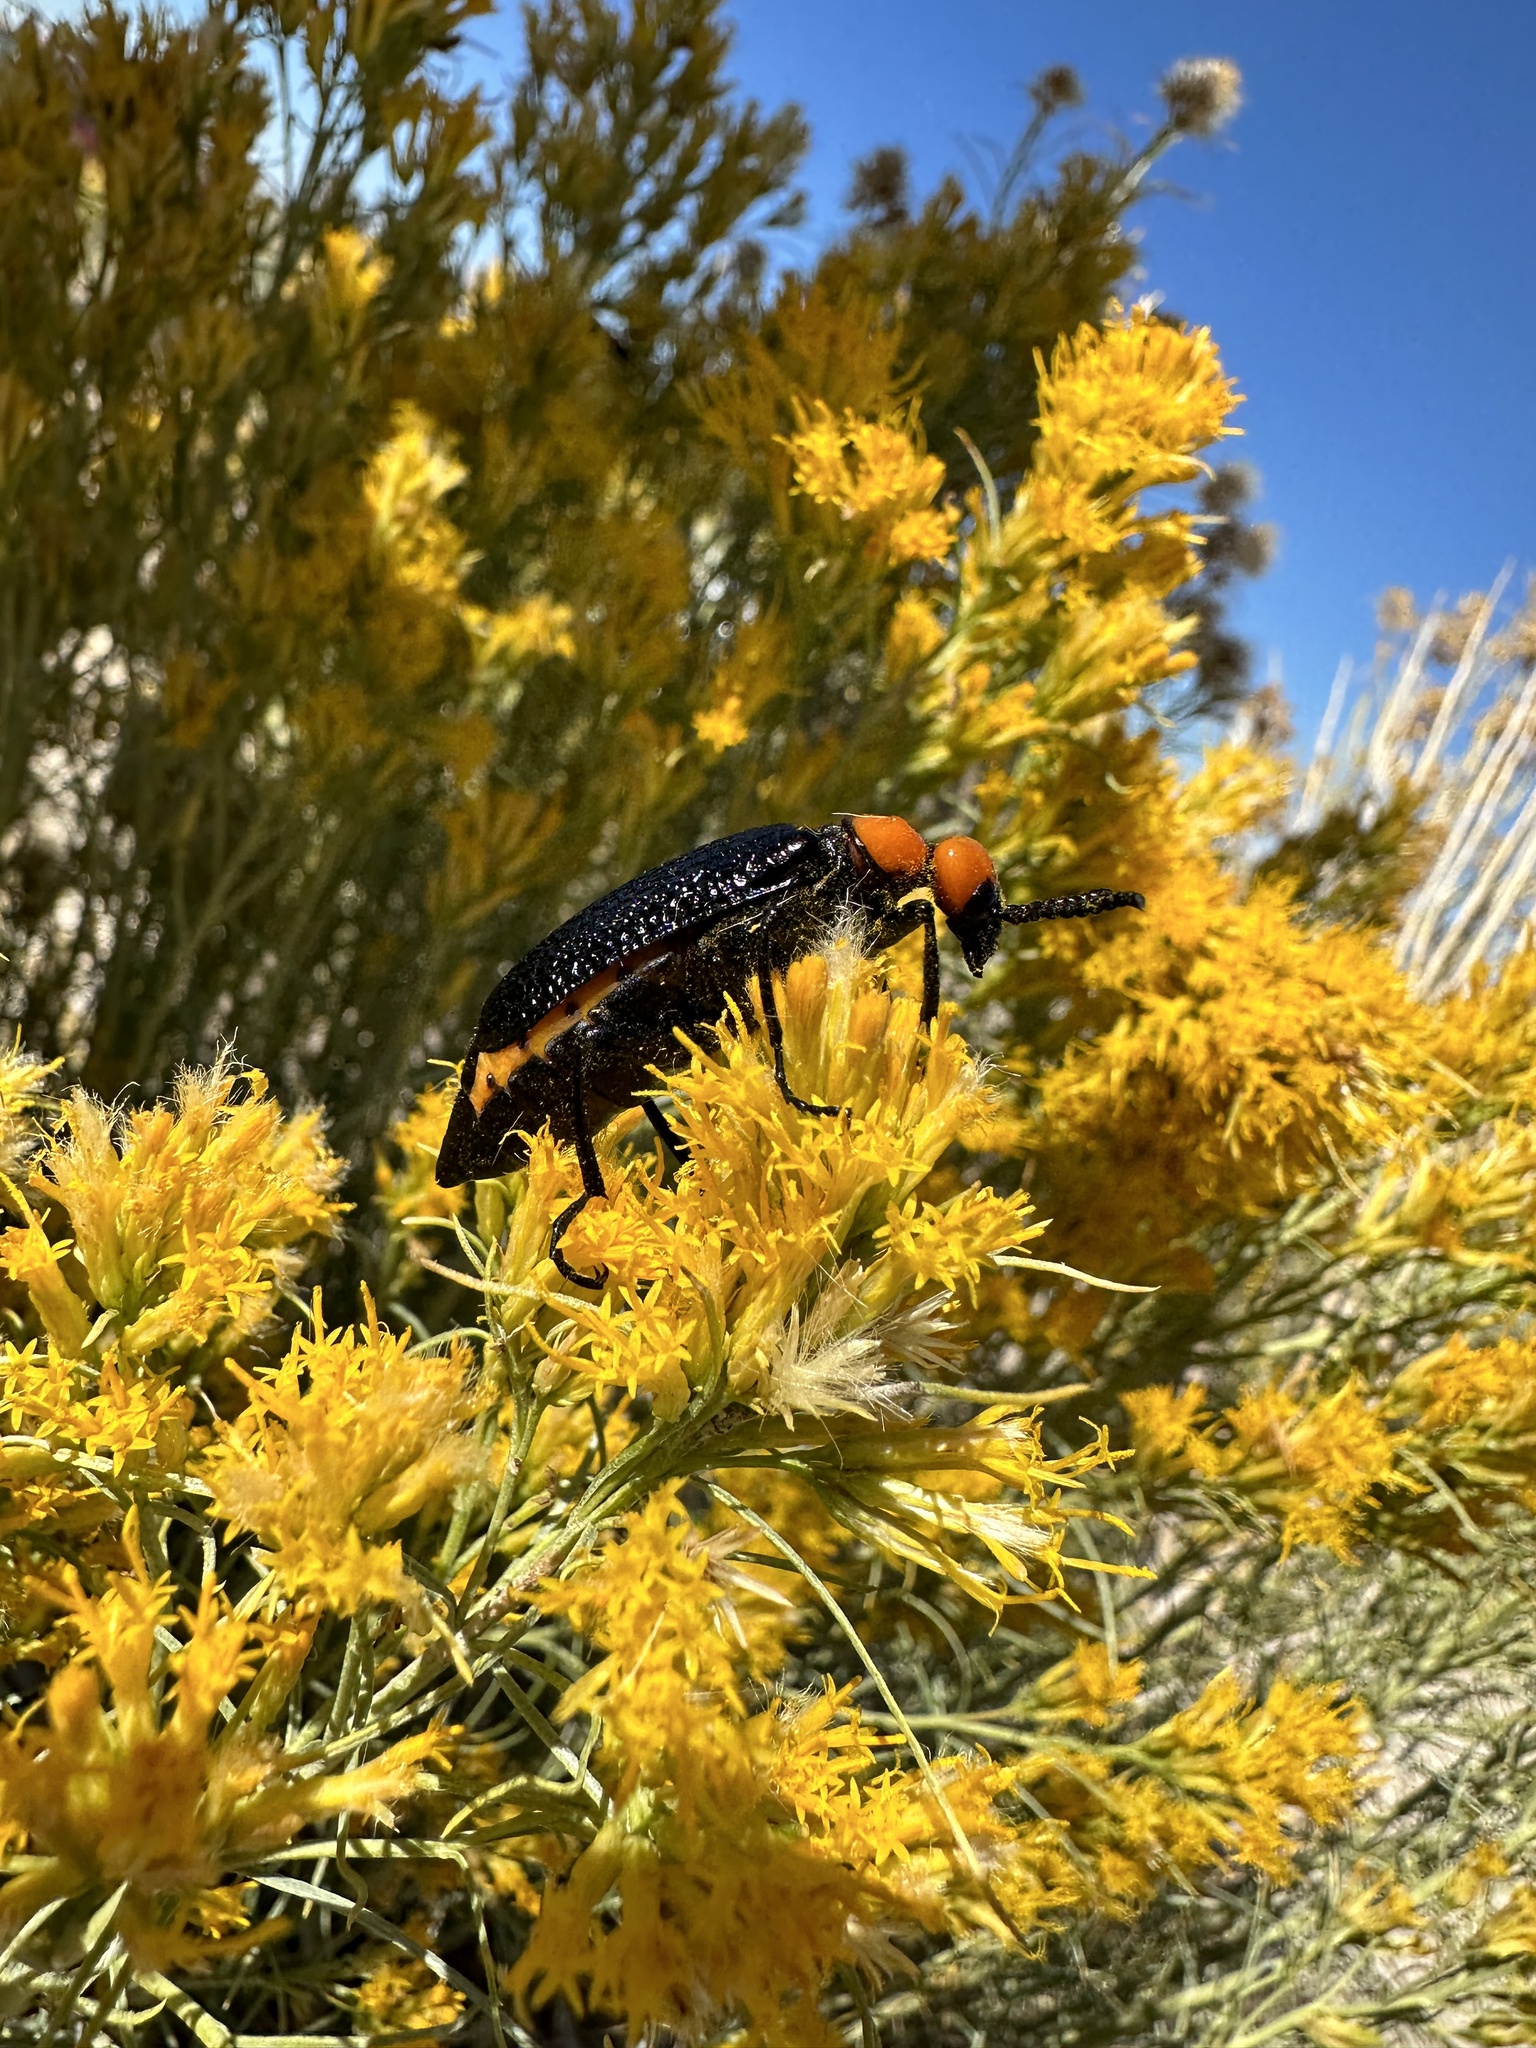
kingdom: Animalia
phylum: Arthropoda
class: Insecta
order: Coleoptera
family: Meloidae
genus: Lytta
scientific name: Lytta vulnerata
